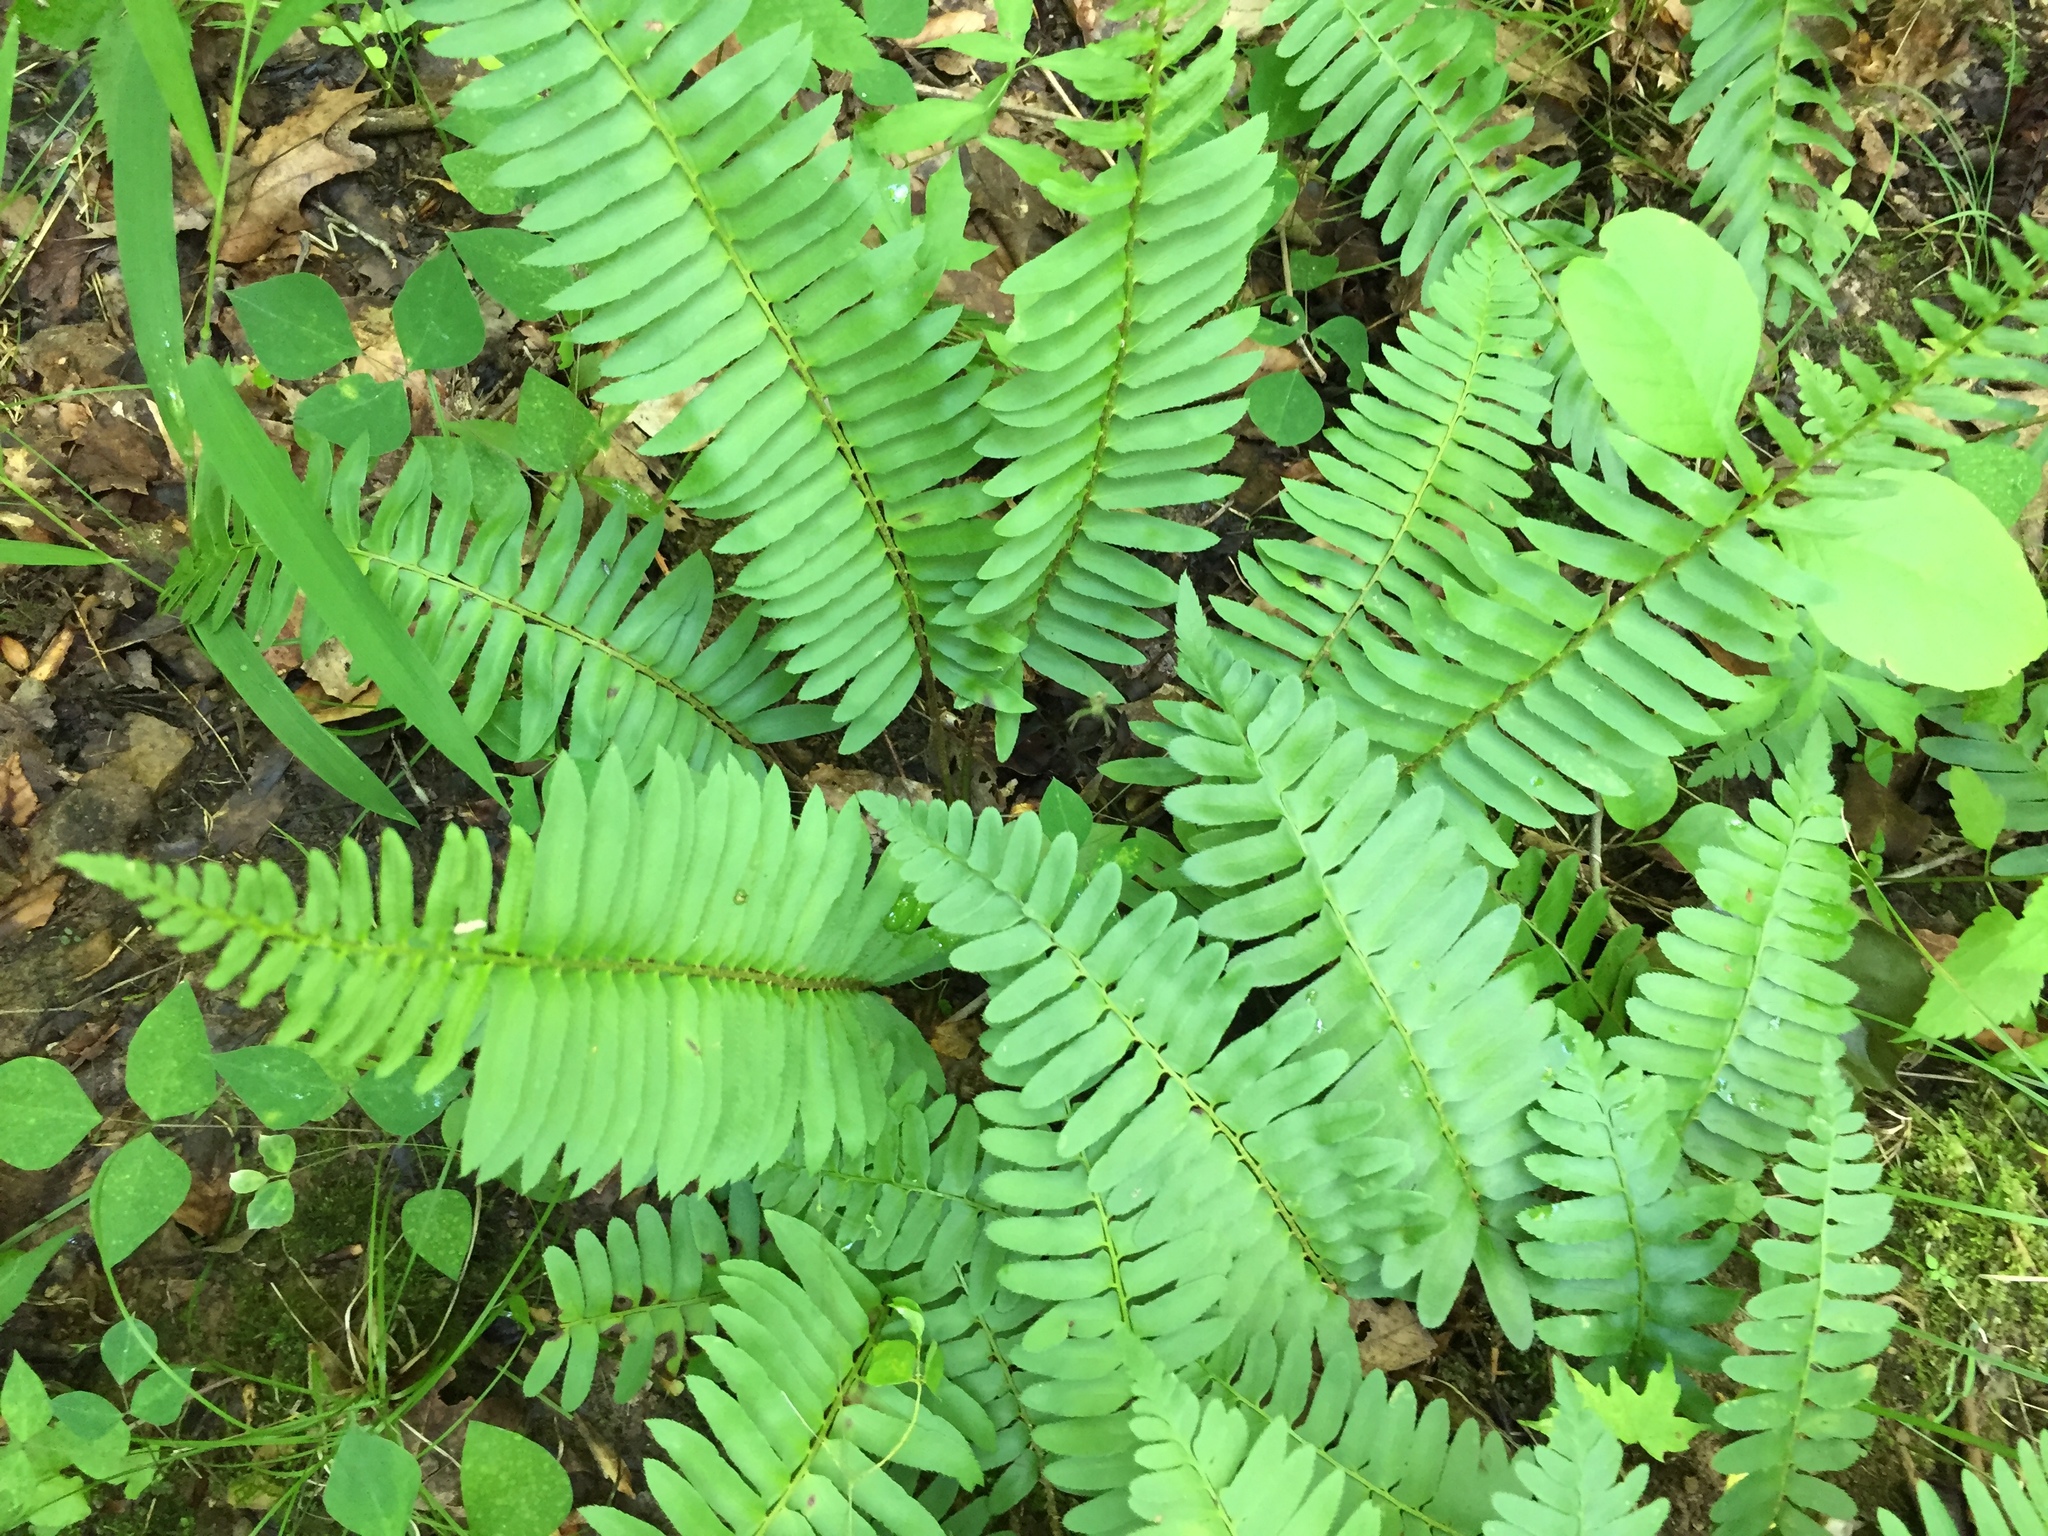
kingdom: Plantae
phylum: Tracheophyta
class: Polypodiopsida
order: Polypodiales
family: Dryopteridaceae
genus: Polystichum
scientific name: Polystichum acrostichoides
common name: Christmas fern
